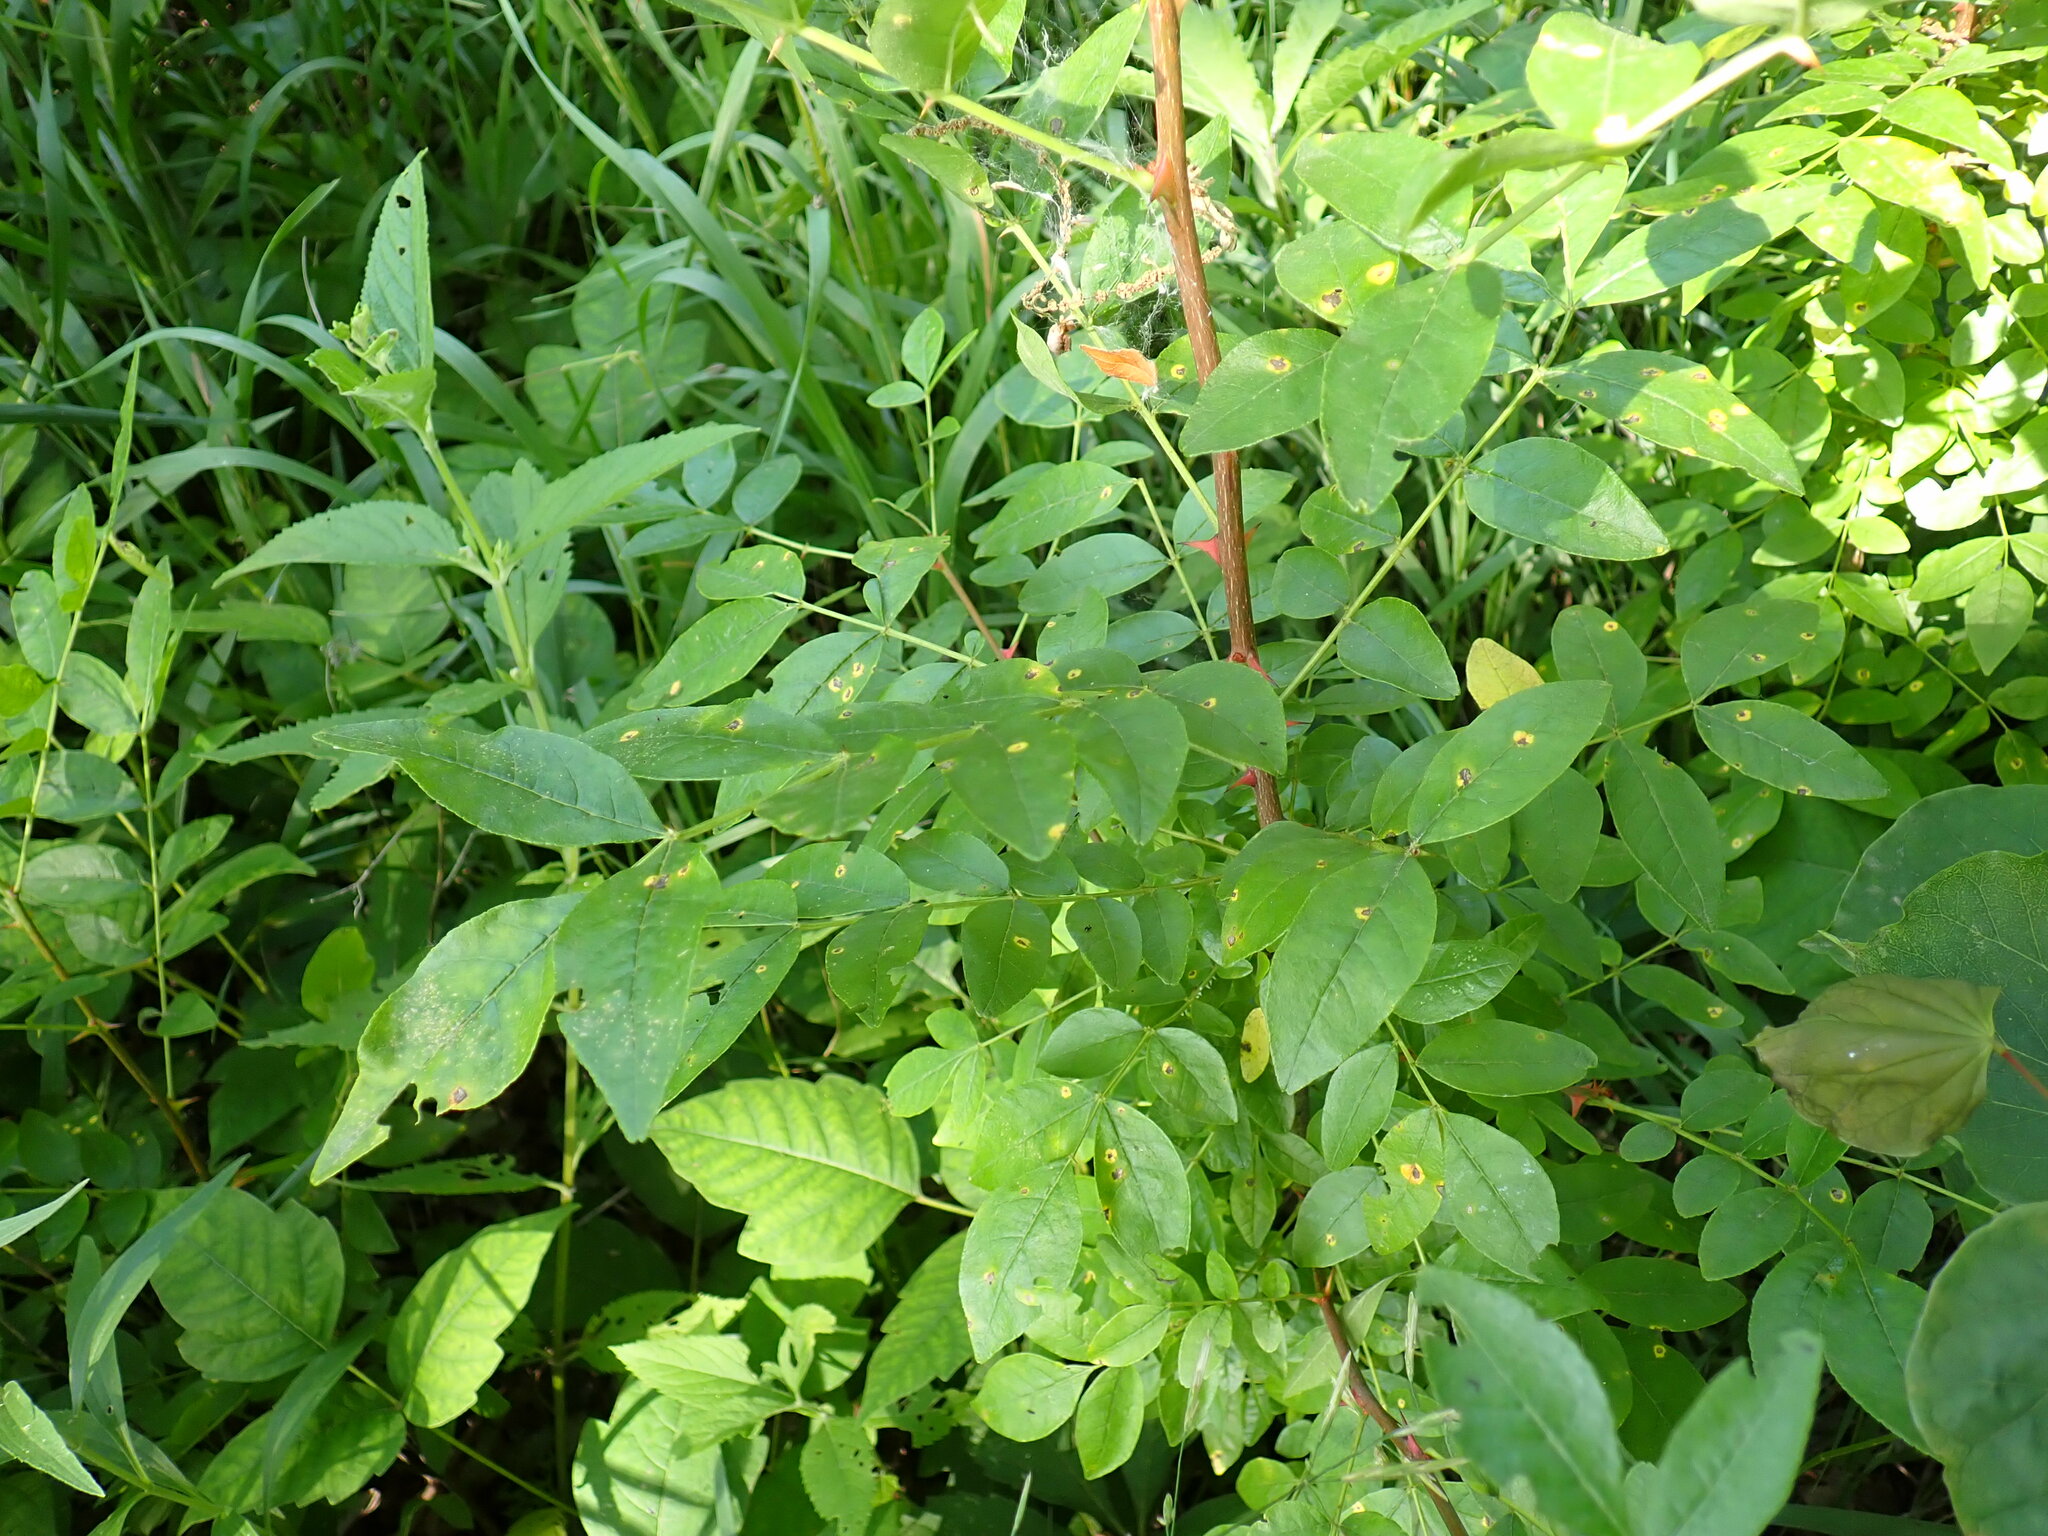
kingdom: Plantae
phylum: Tracheophyta
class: Magnoliopsida
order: Sapindales
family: Rutaceae
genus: Zanthoxylum
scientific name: Zanthoxylum americanum
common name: Northern prickly-ash
